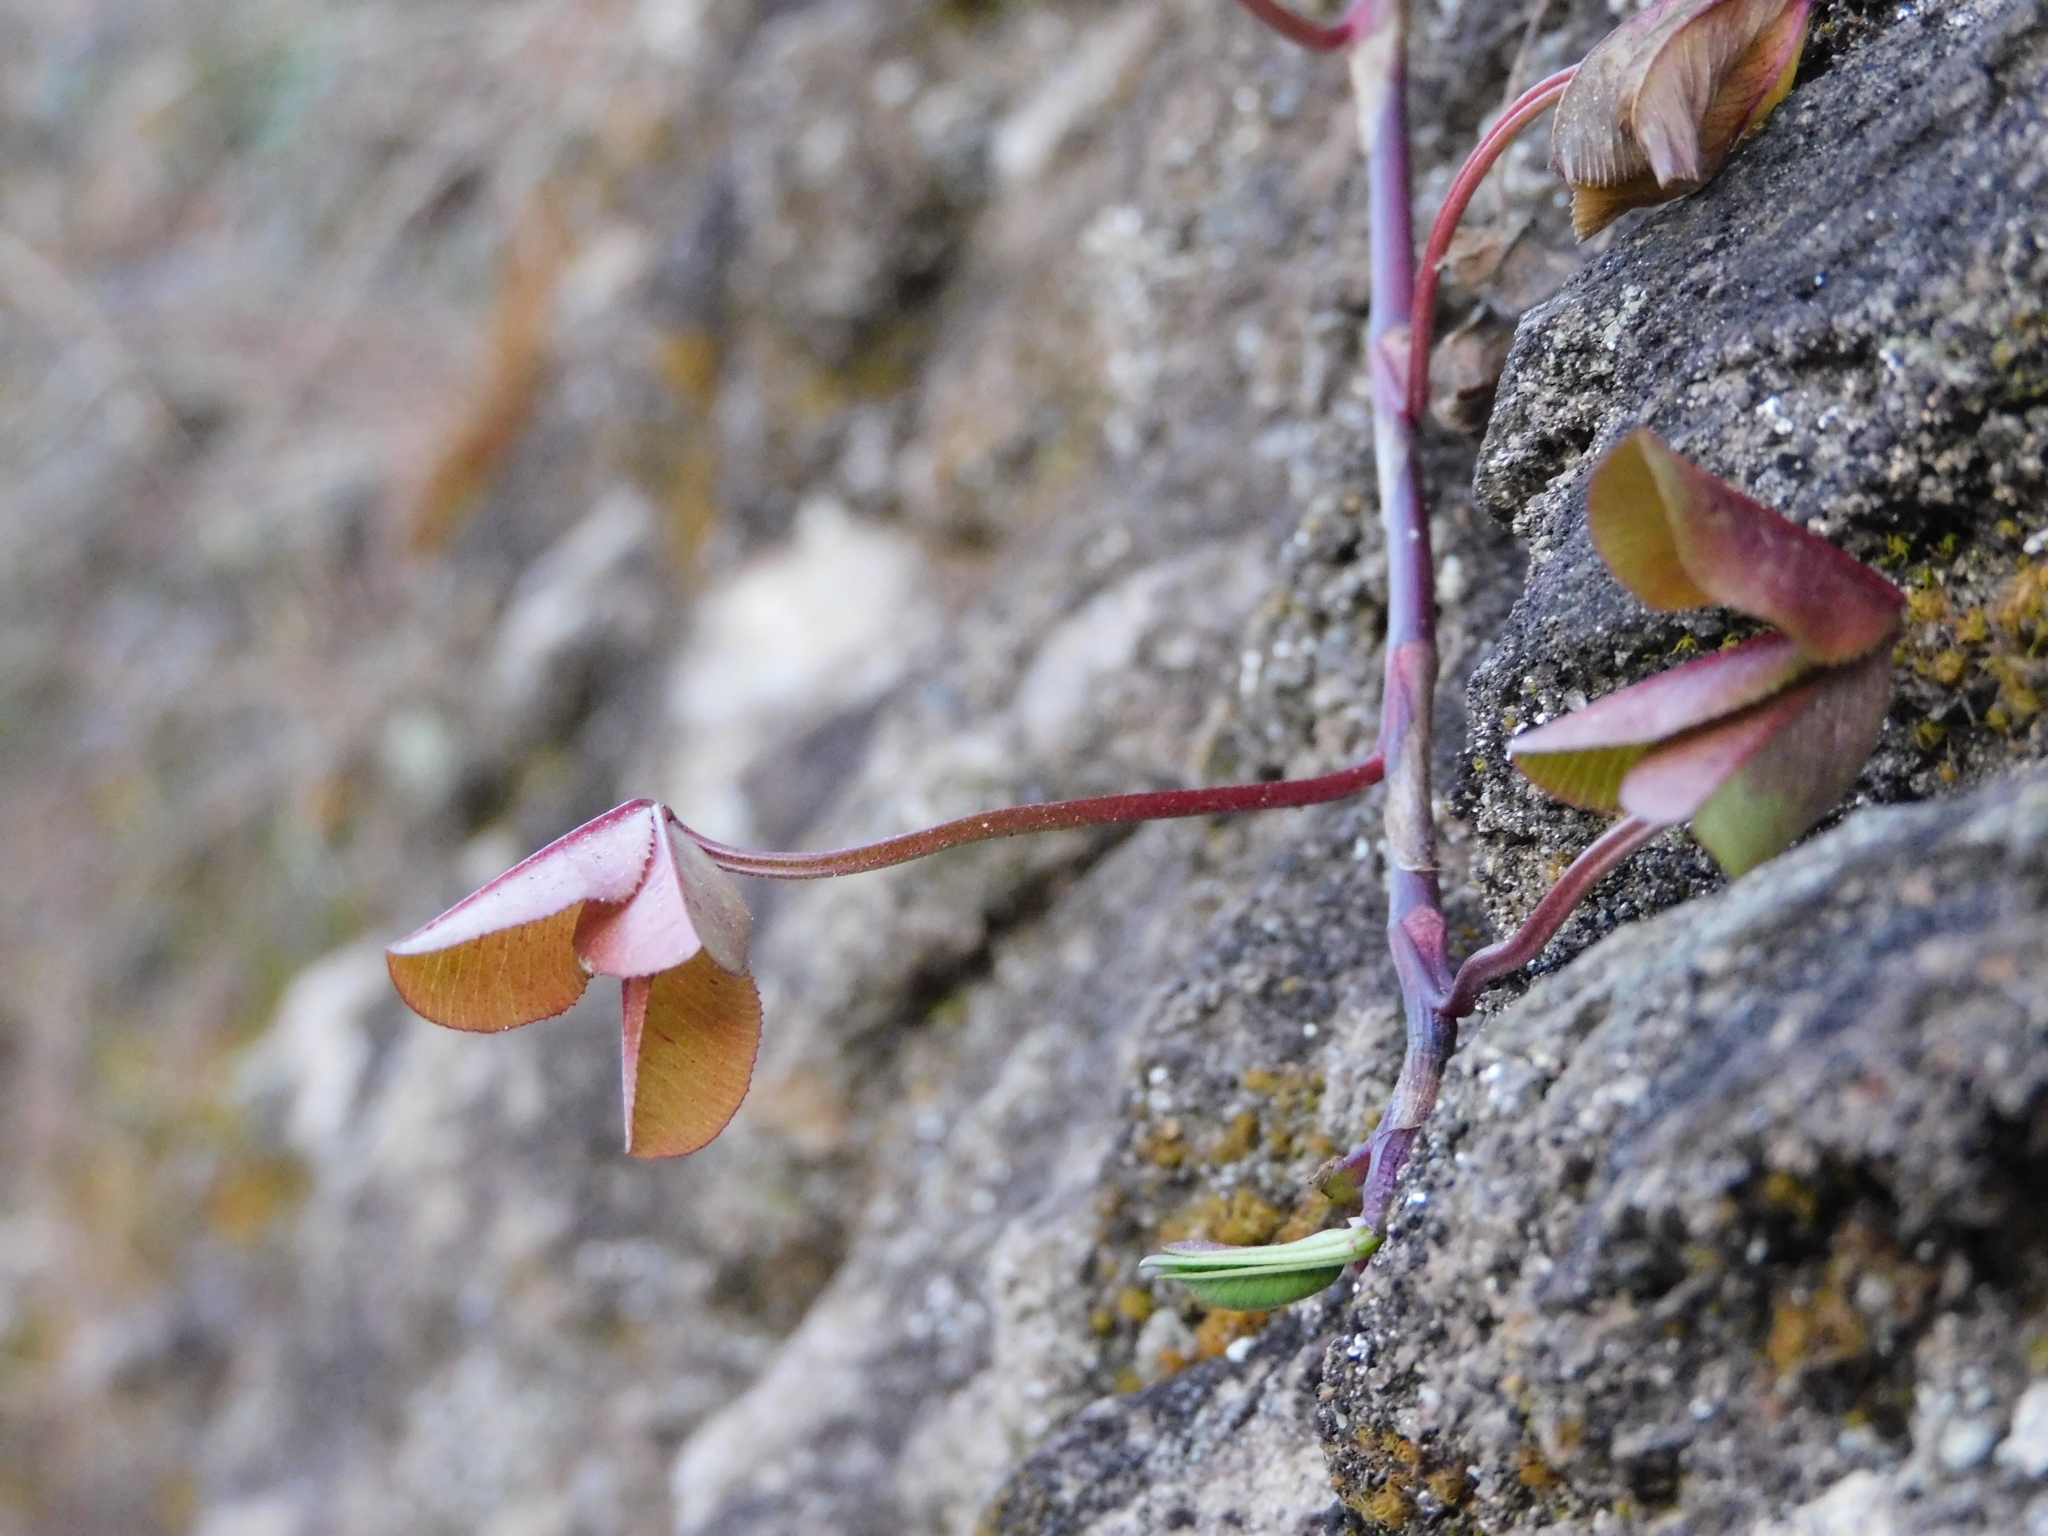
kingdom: Plantae
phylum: Tracheophyta
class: Magnoliopsida
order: Fabales
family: Fabaceae
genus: Trifolium
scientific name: Trifolium repens
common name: White clover
